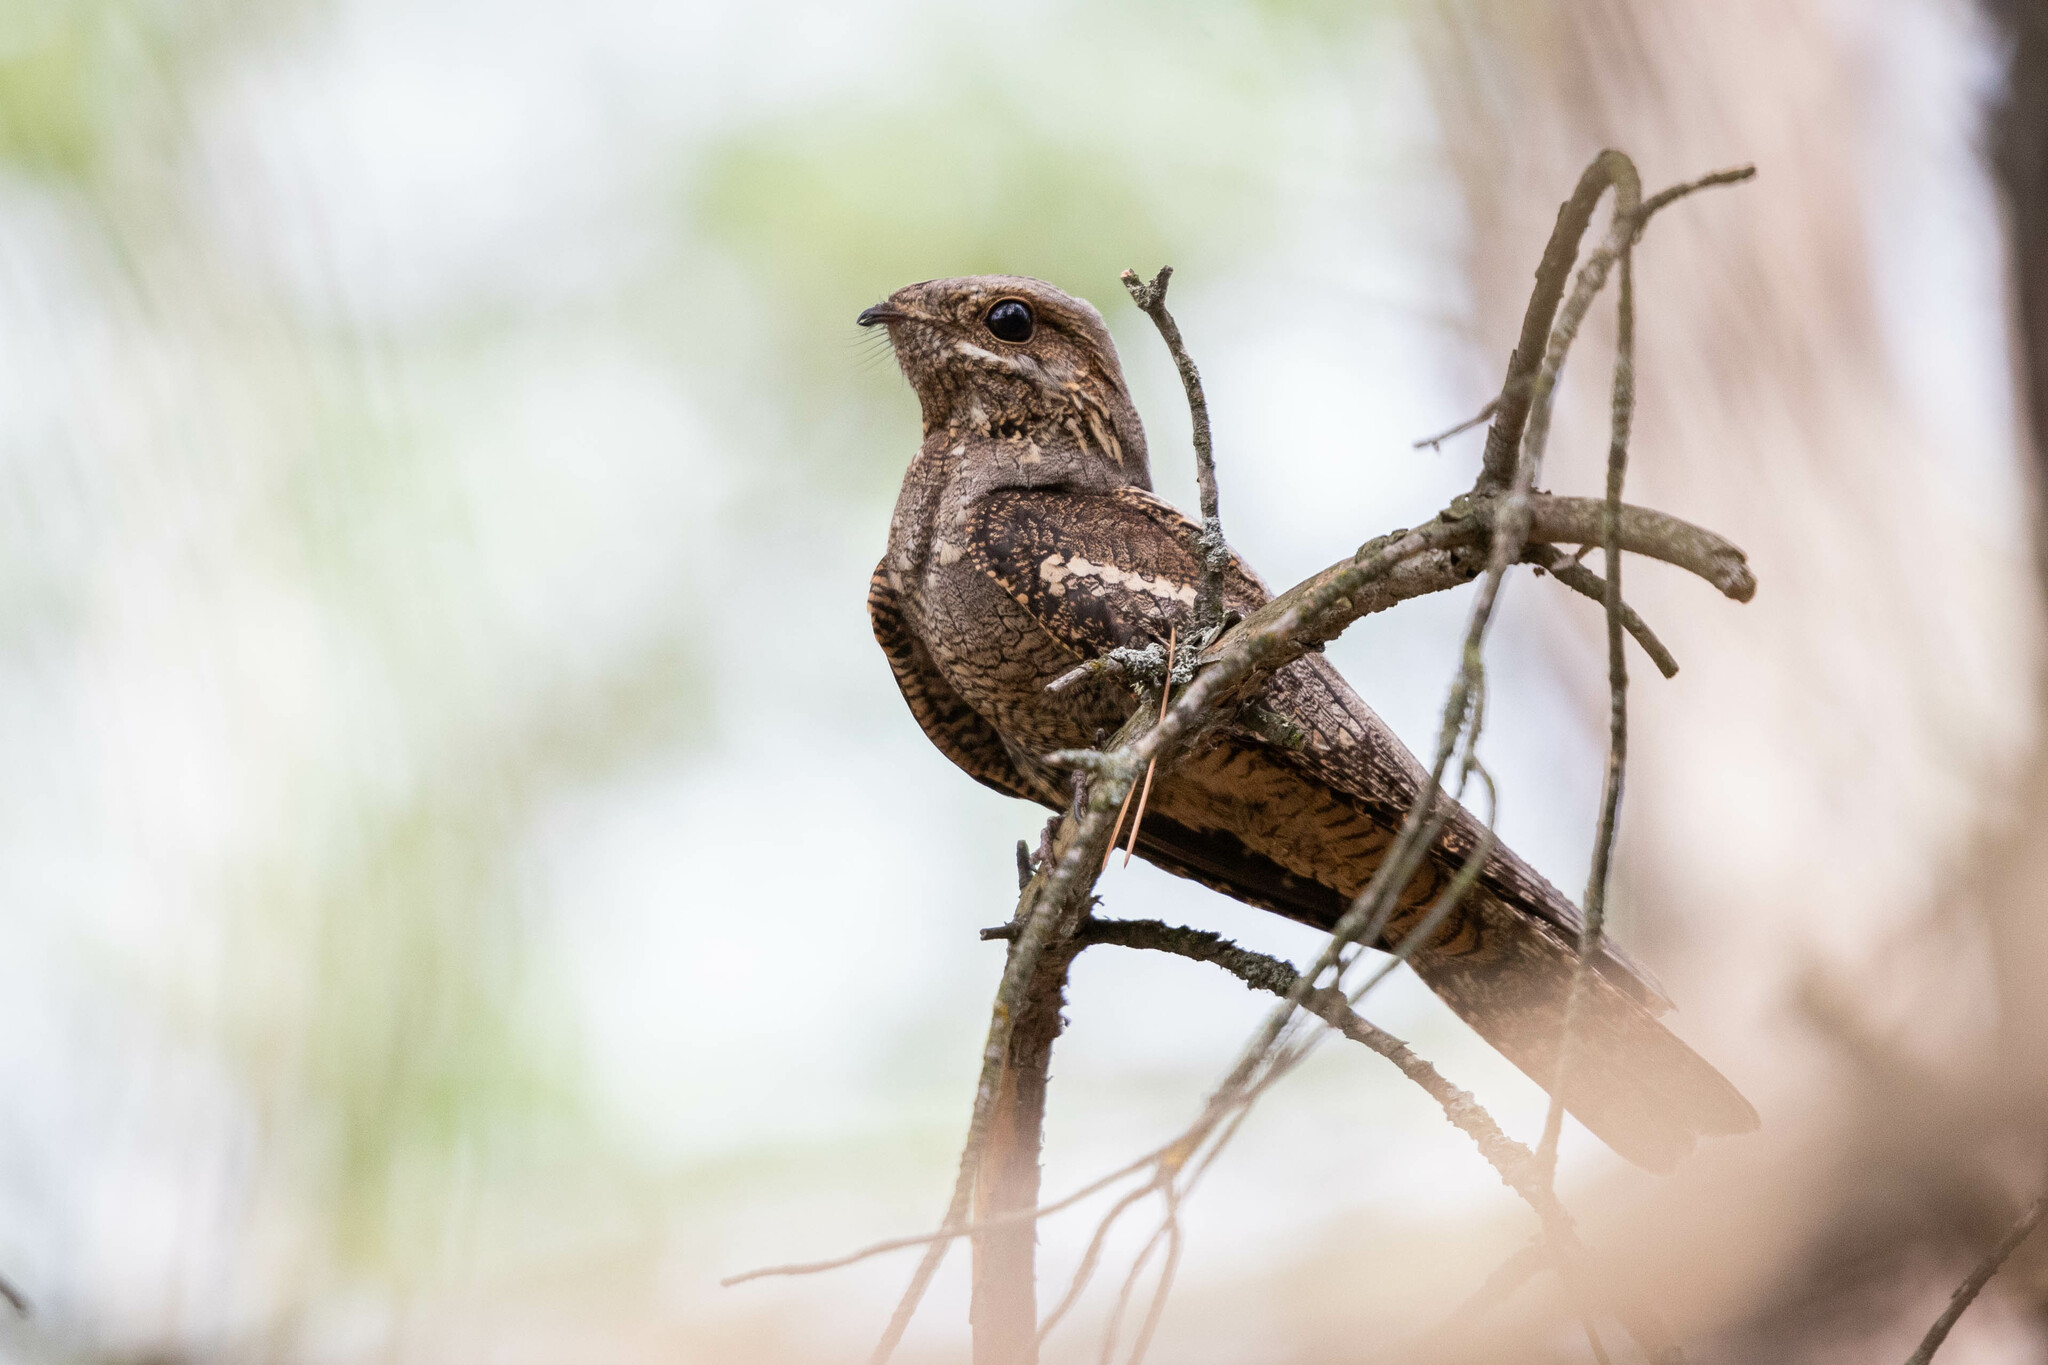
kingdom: Animalia
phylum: Chordata
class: Aves
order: Caprimulgiformes
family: Caprimulgidae
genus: Caprimulgus
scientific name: Caprimulgus europaeus
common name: European nightjar
